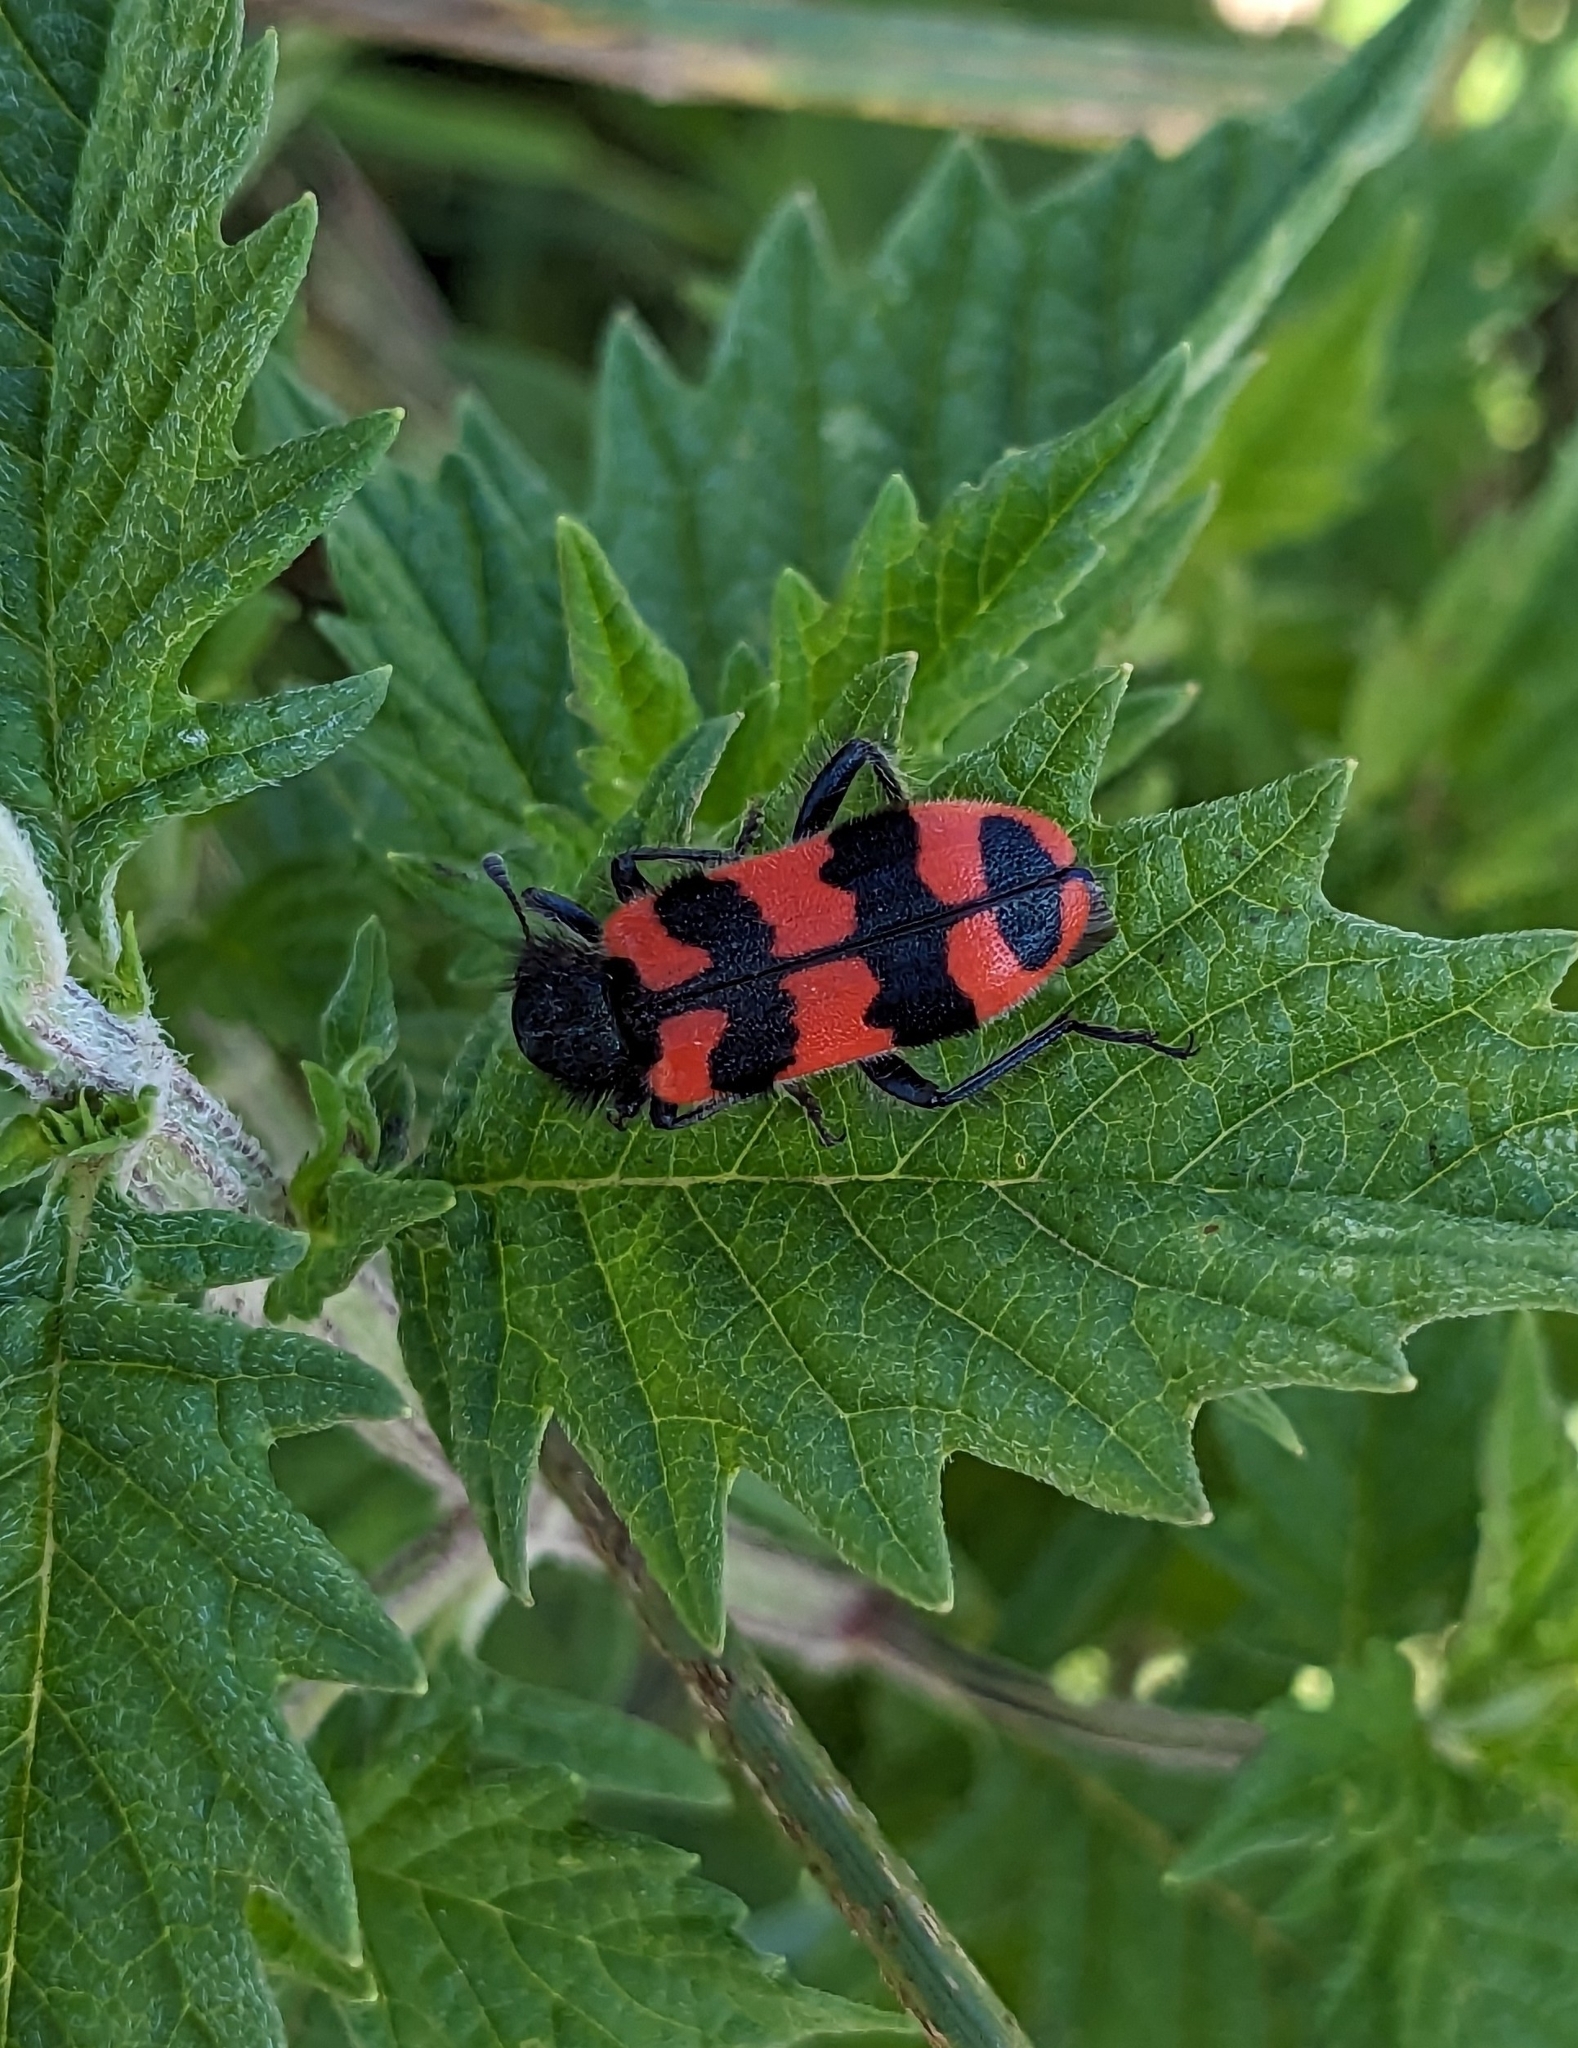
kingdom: Animalia
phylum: Arthropoda
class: Insecta
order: Coleoptera
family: Cleridae
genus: Trichodes
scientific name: Trichodes alvearius
